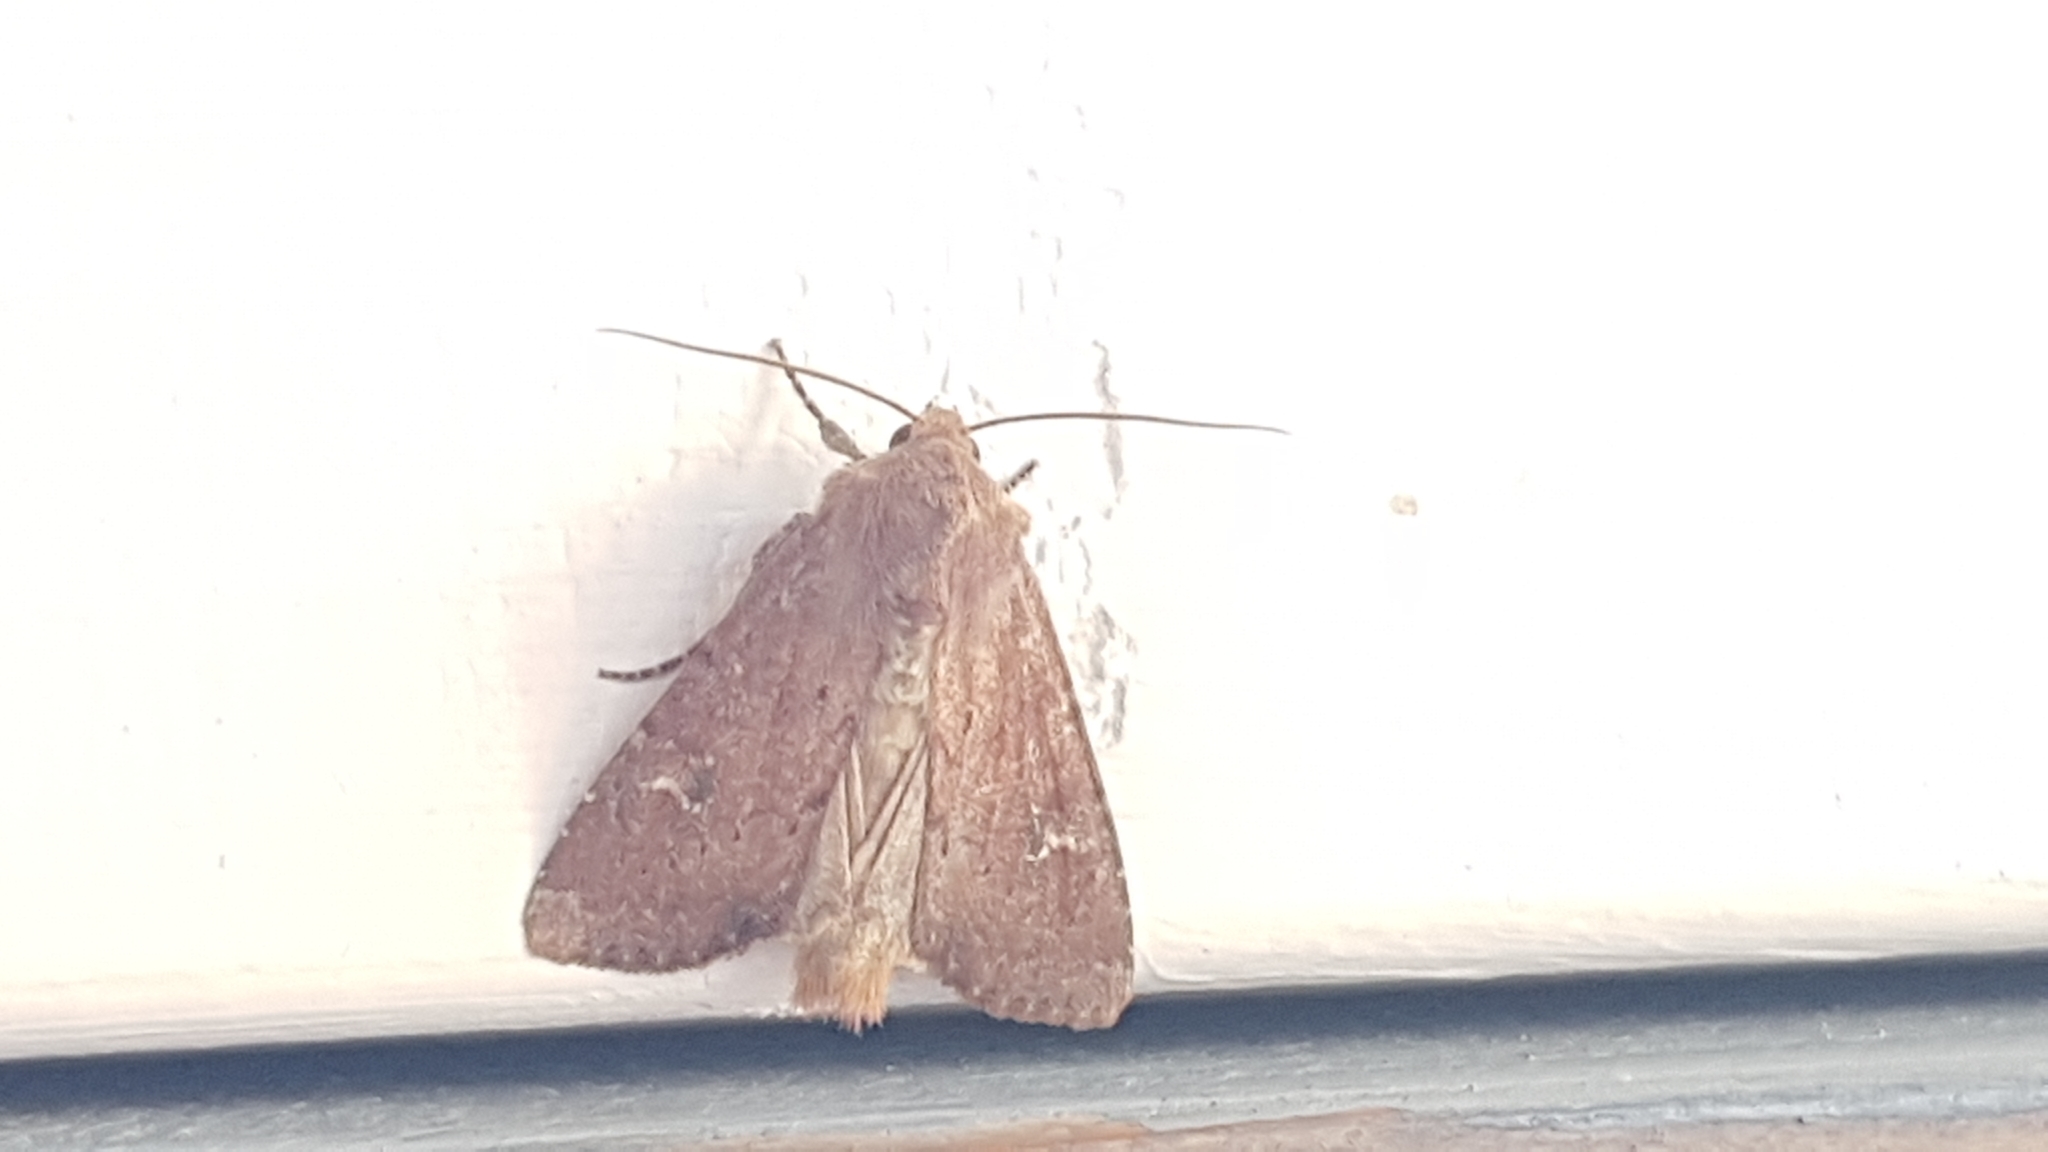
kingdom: Animalia
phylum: Arthropoda
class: Insecta
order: Lepidoptera
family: Noctuidae
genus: Apamea
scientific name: Apamea lateritia
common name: Scarce brindle
